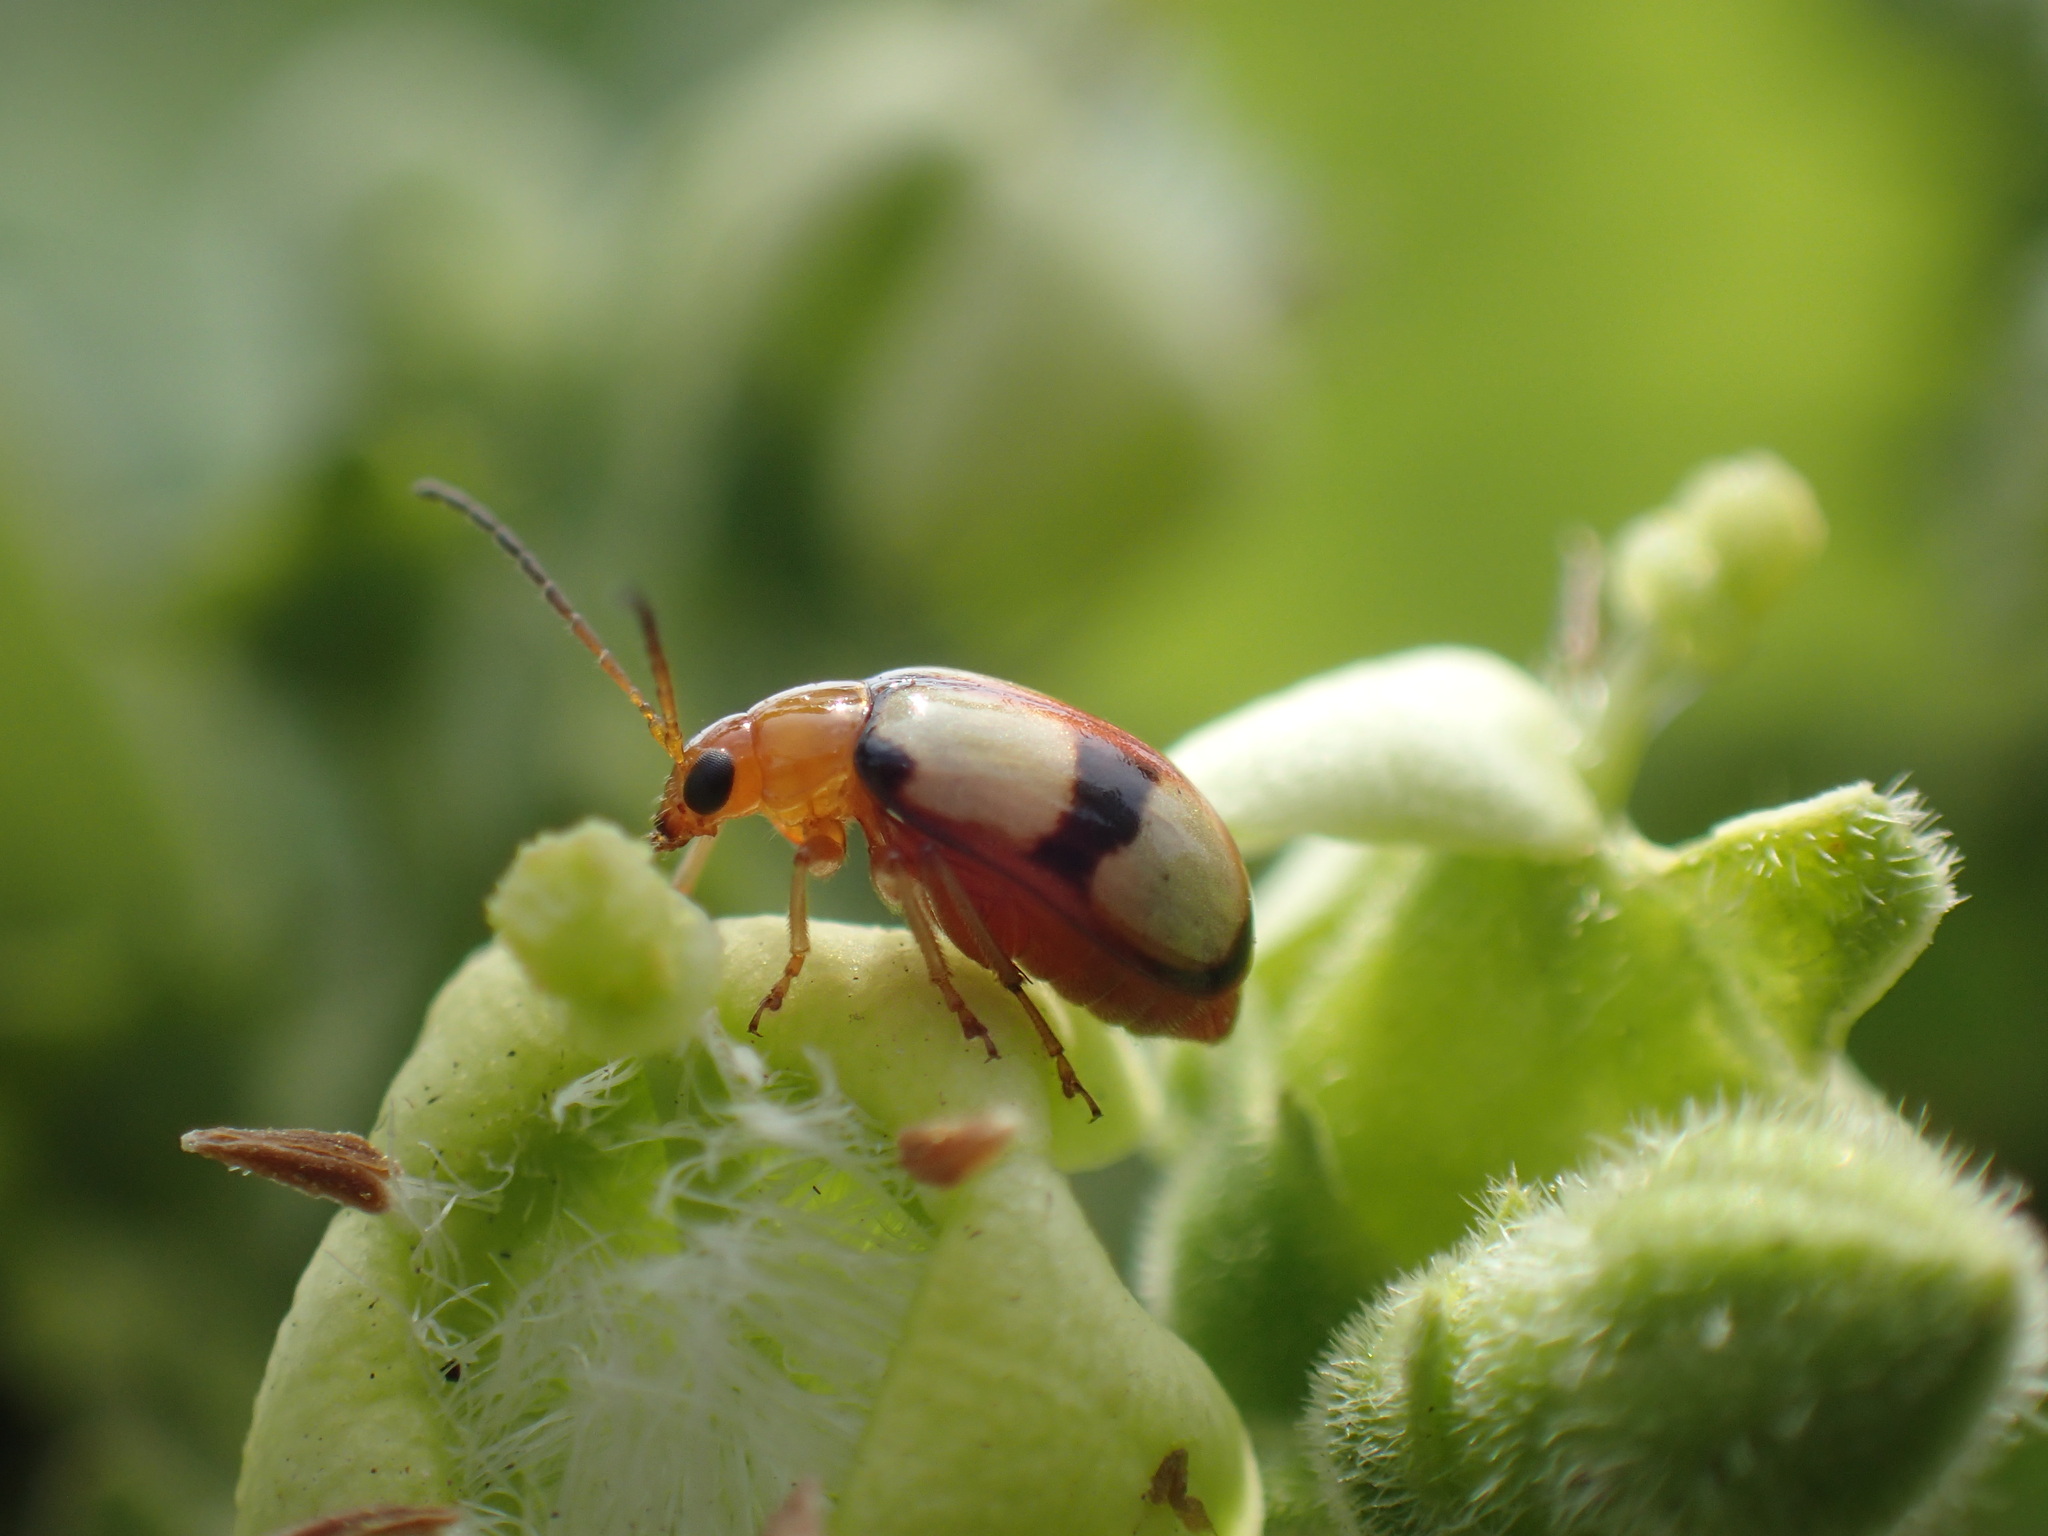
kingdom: Animalia
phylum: Arthropoda
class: Insecta
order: Coleoptera
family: Chrysomelidae
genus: Monolepta
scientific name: Monolepta
